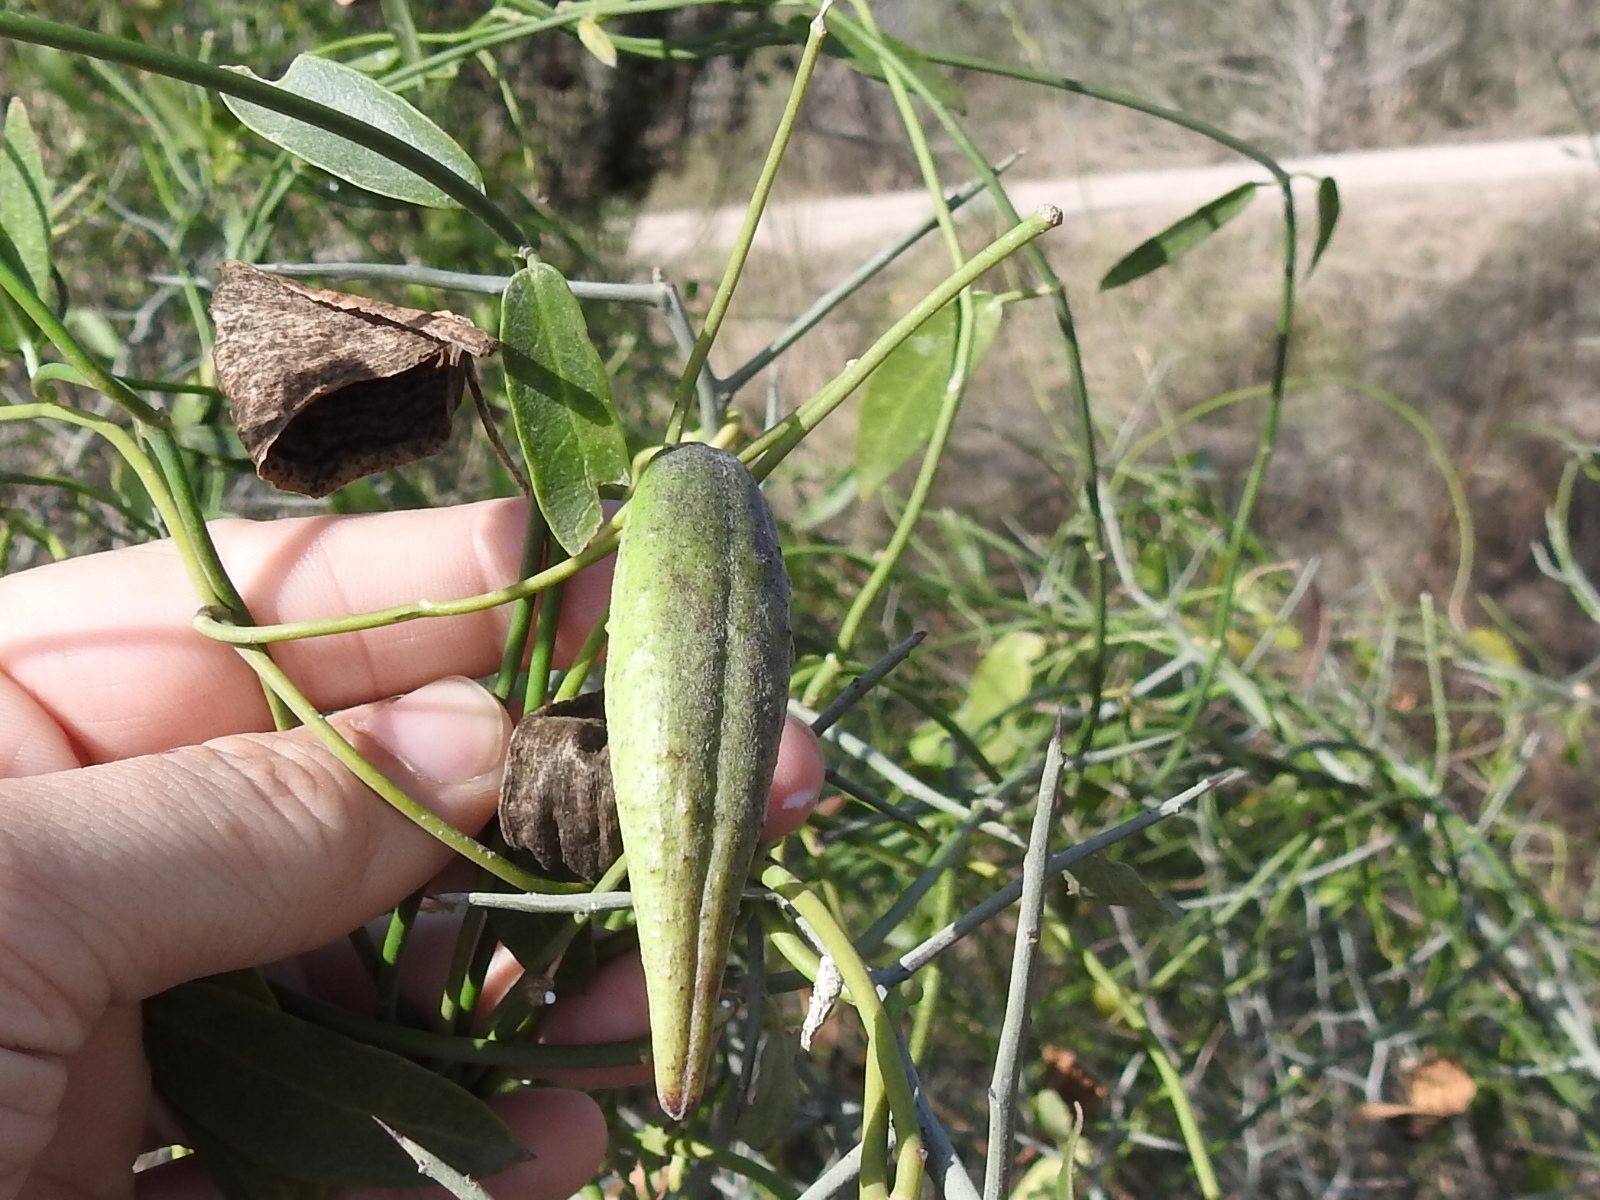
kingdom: Plantae
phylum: Tracheophyta
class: Magnoliopsida
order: Gentianales
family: Apocynaceae
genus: Funastrum
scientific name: Funastrum clausum
